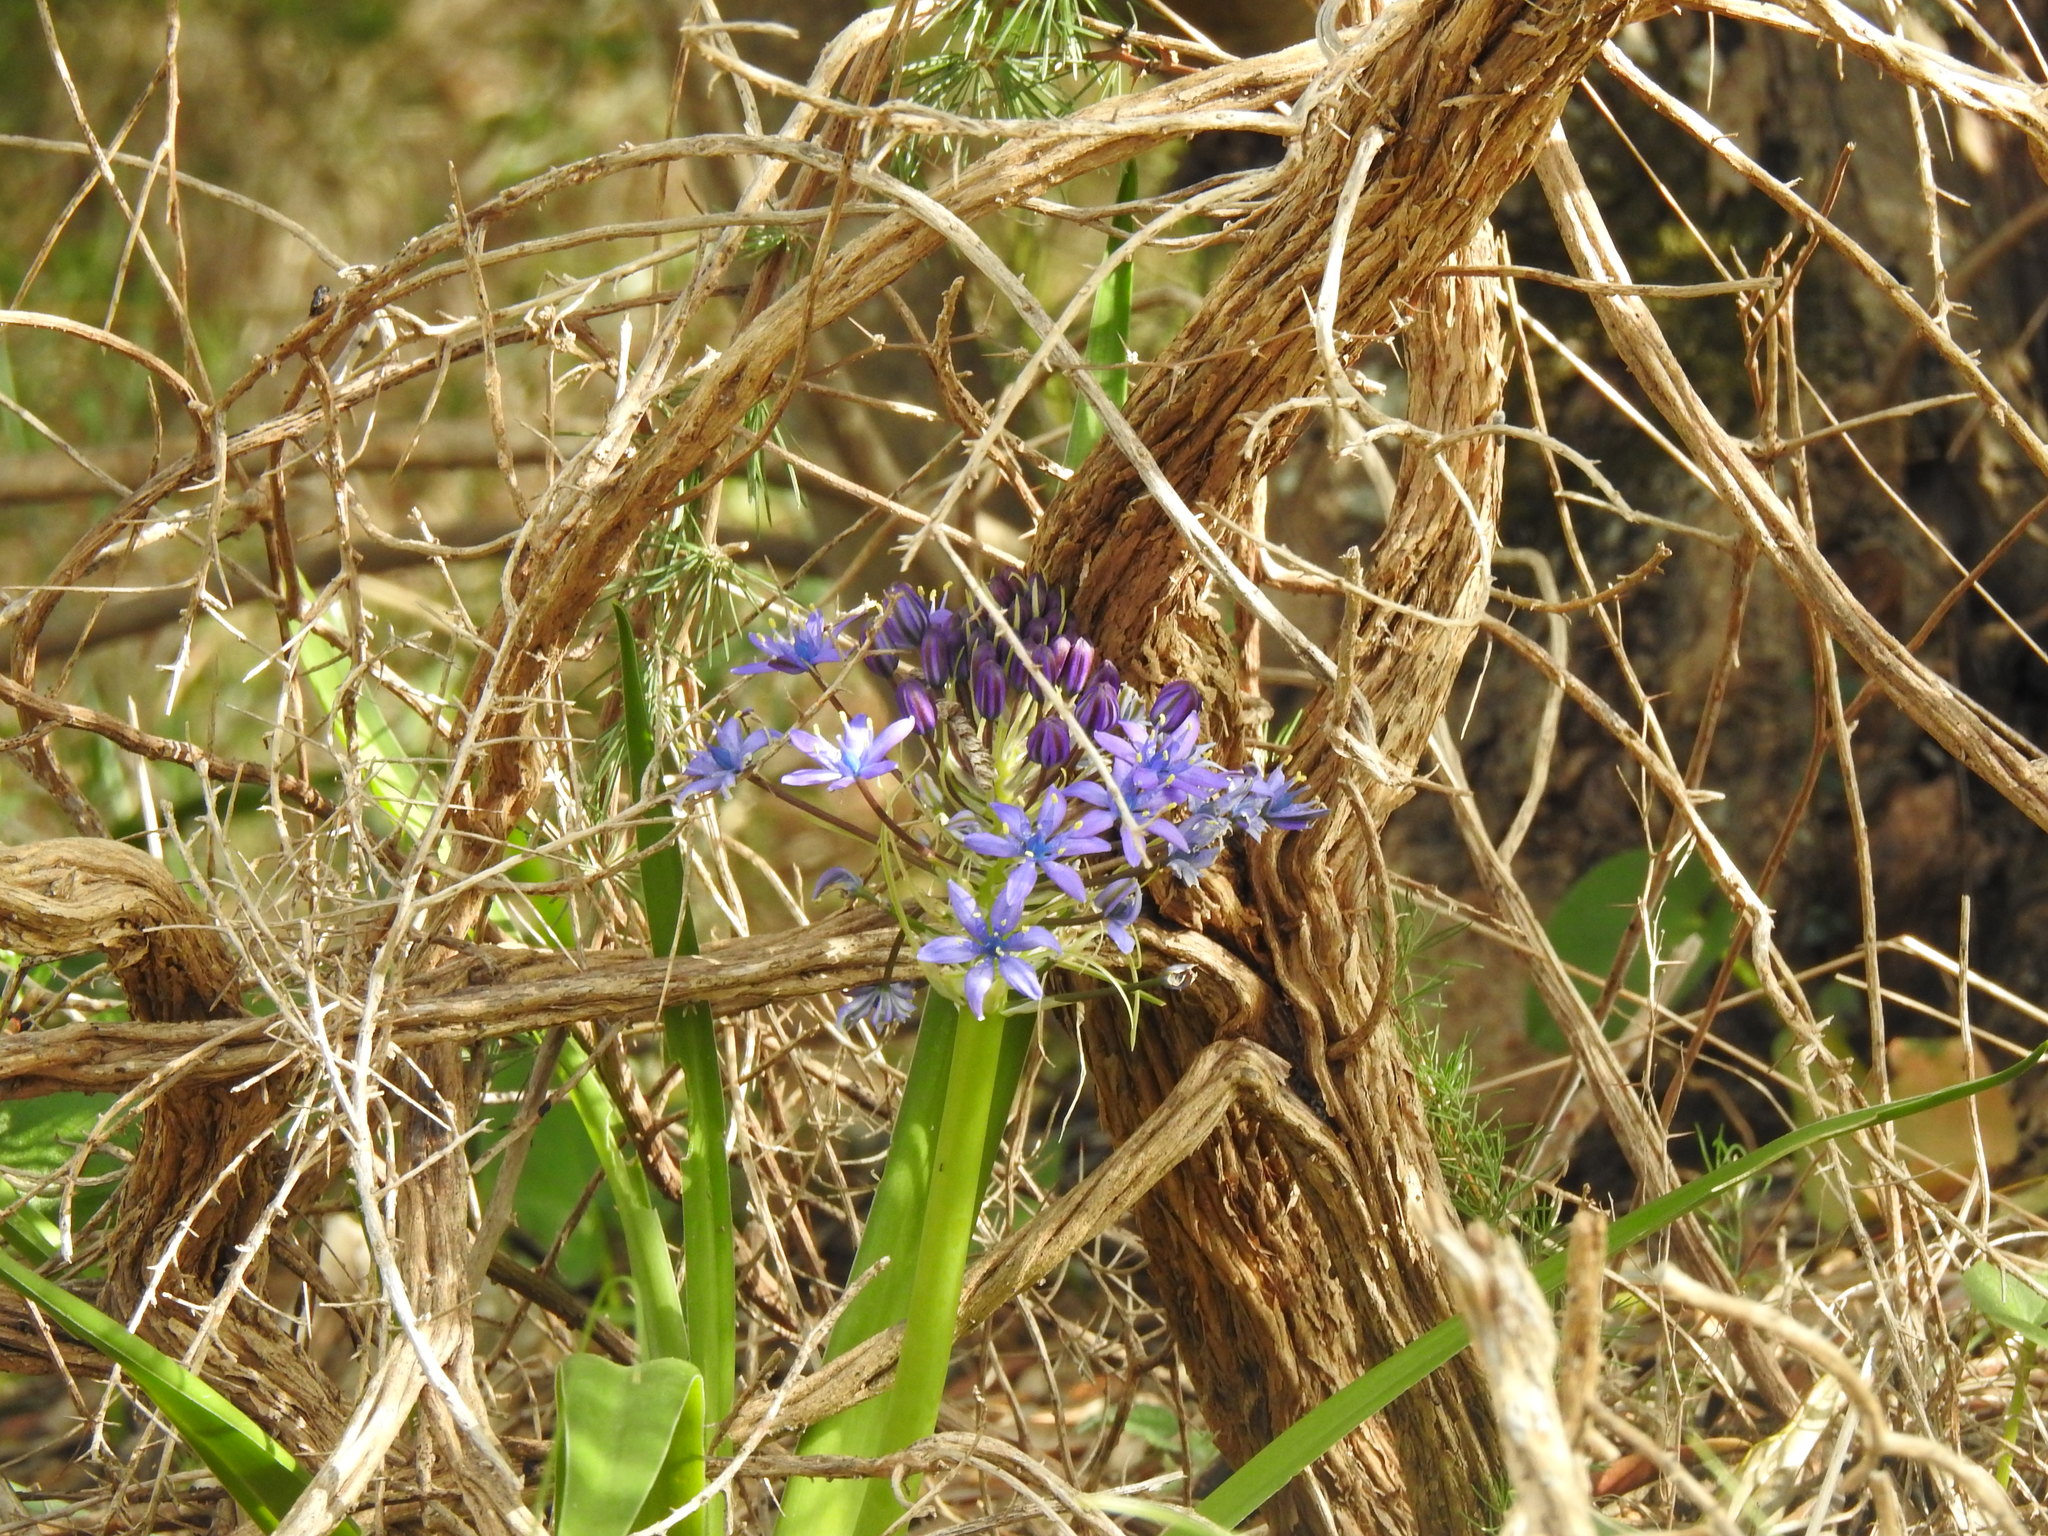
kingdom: Plantae
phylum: Tracheophyta
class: Liliopsida
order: Asparagales
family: Asparagaceae
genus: Scilla
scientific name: Scilla peruviana
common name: Portuguese squill
